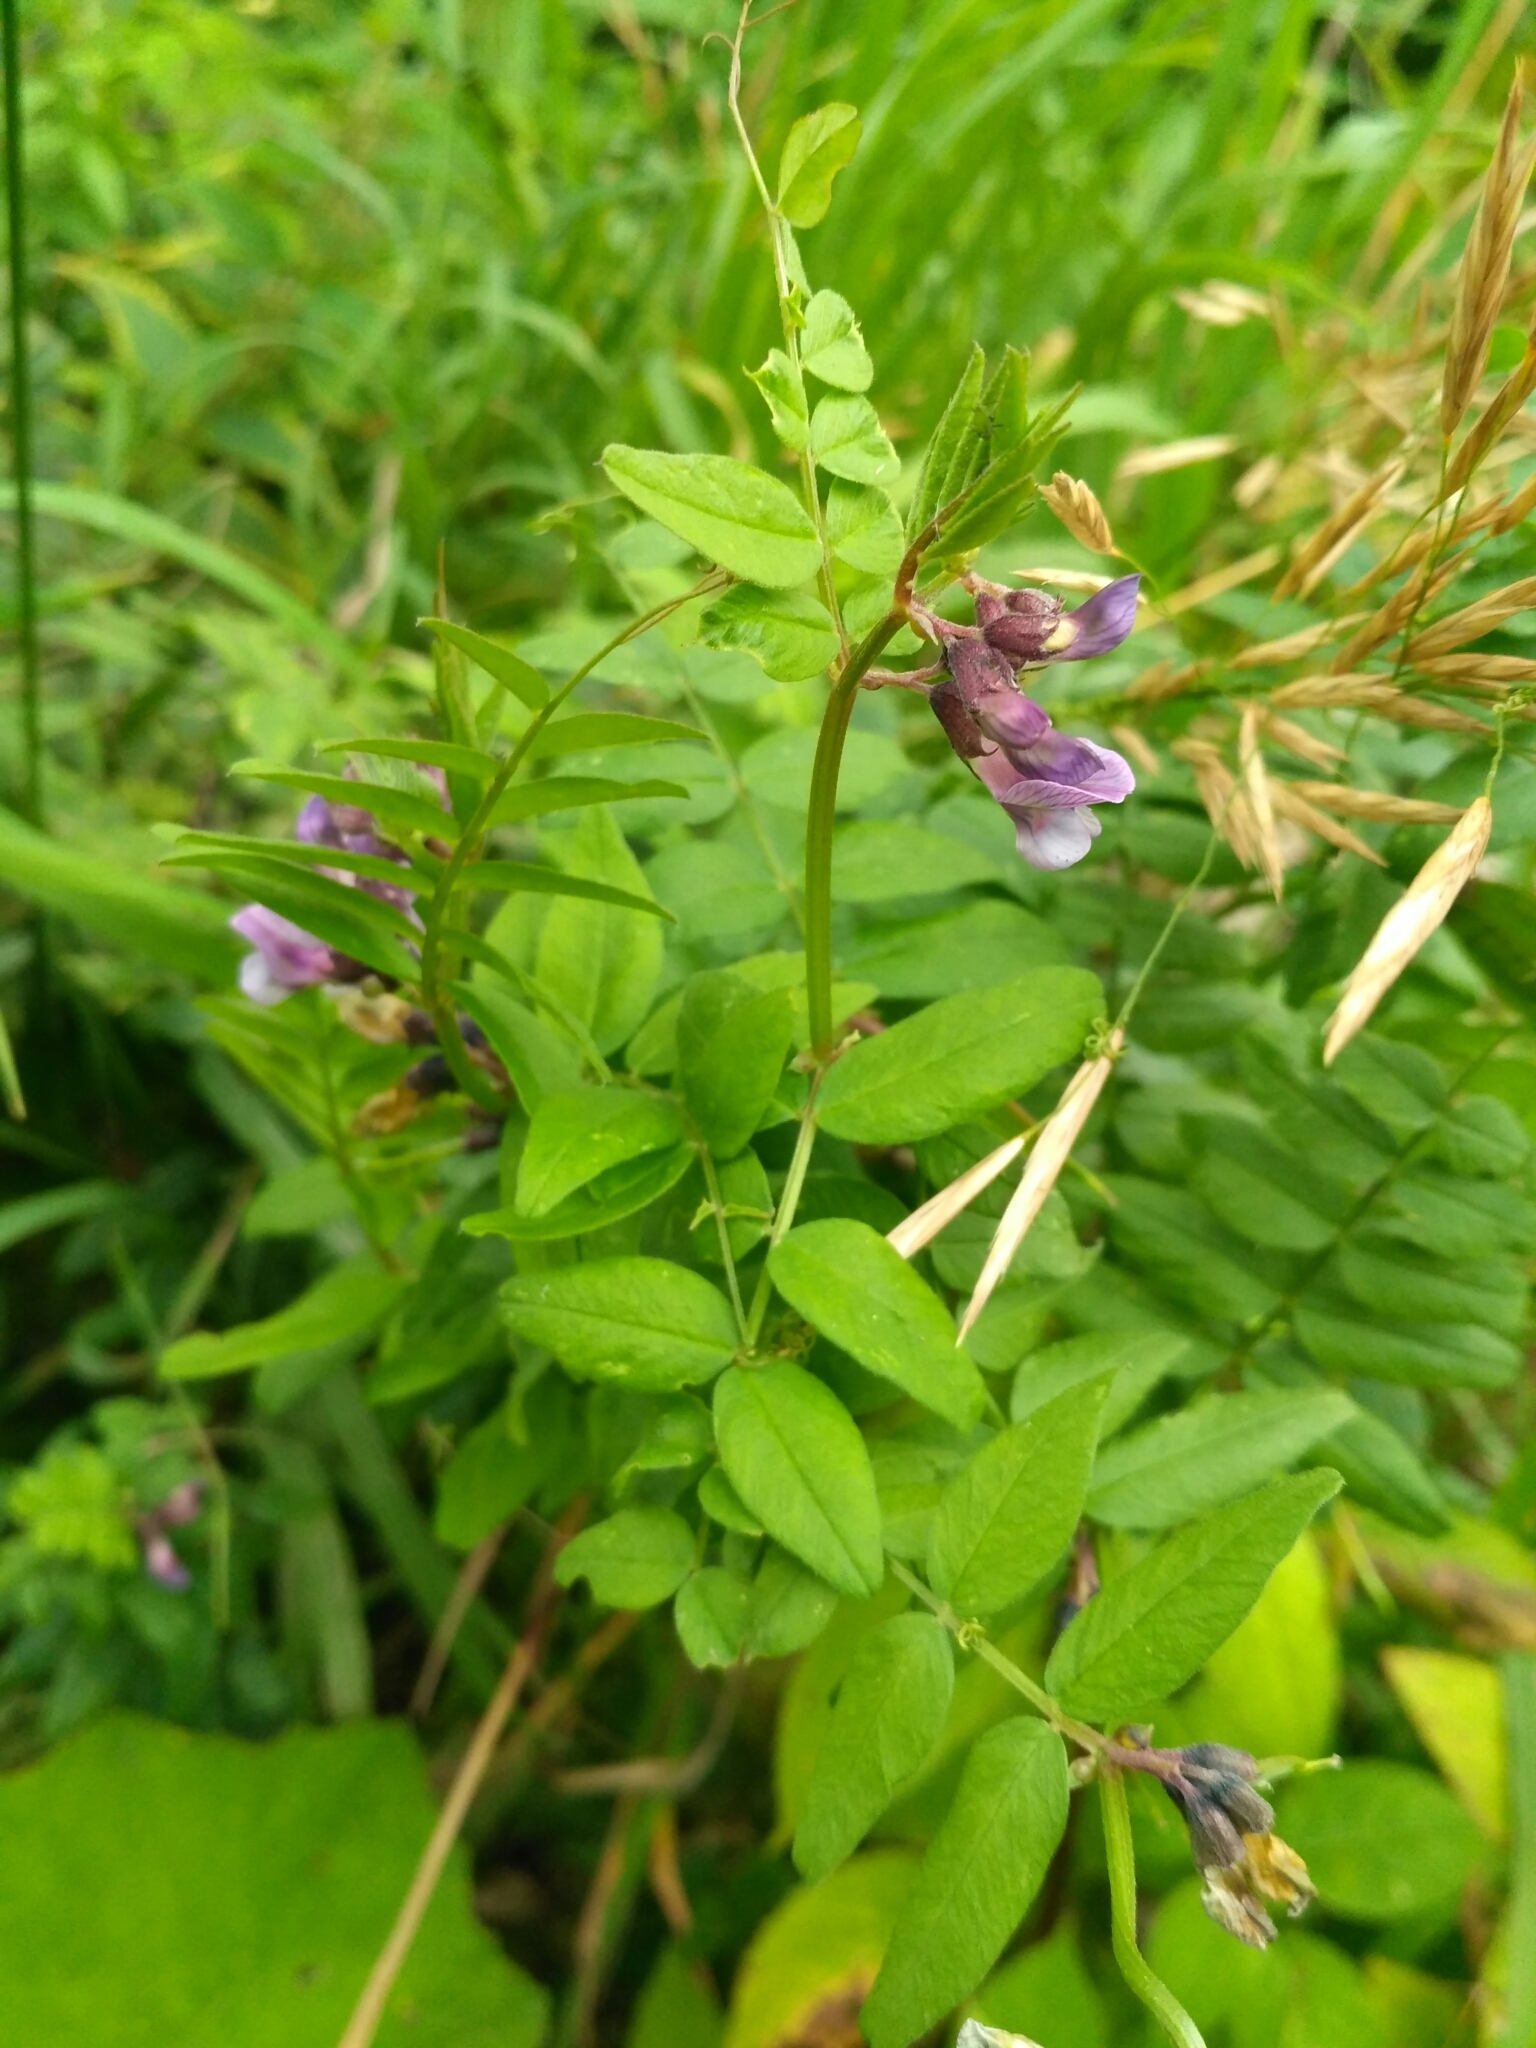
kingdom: Plantae
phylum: Tracheophyta
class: Magnoliopsida
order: Fabales
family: Fabaceae
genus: Vicia
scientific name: Vicia sepium
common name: Bush vetch
